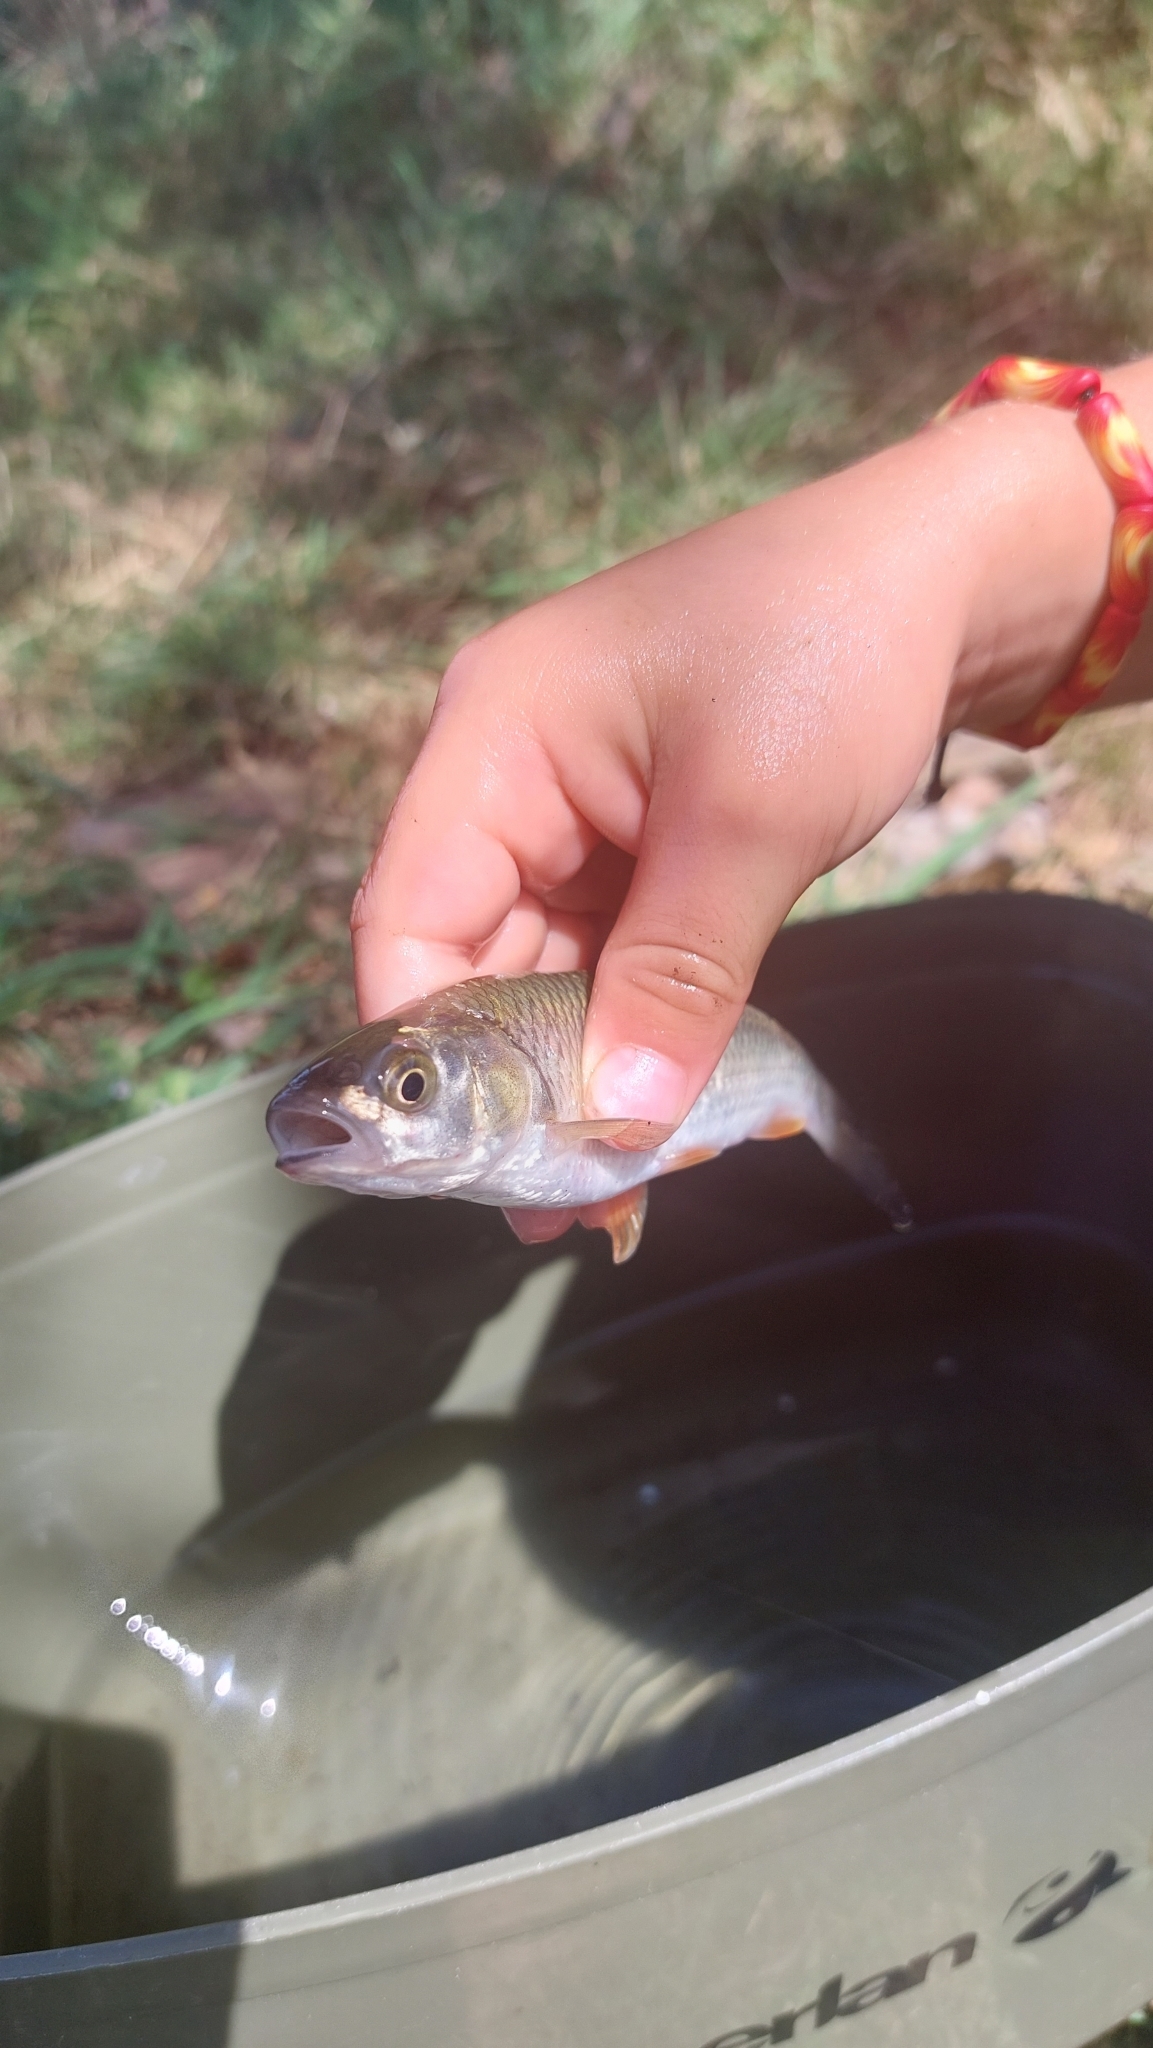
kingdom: Animalia
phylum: Chordata
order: Cypriniformes
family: Cyprinidae
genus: Squalius
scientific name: Squalius cephalus
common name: Chub
